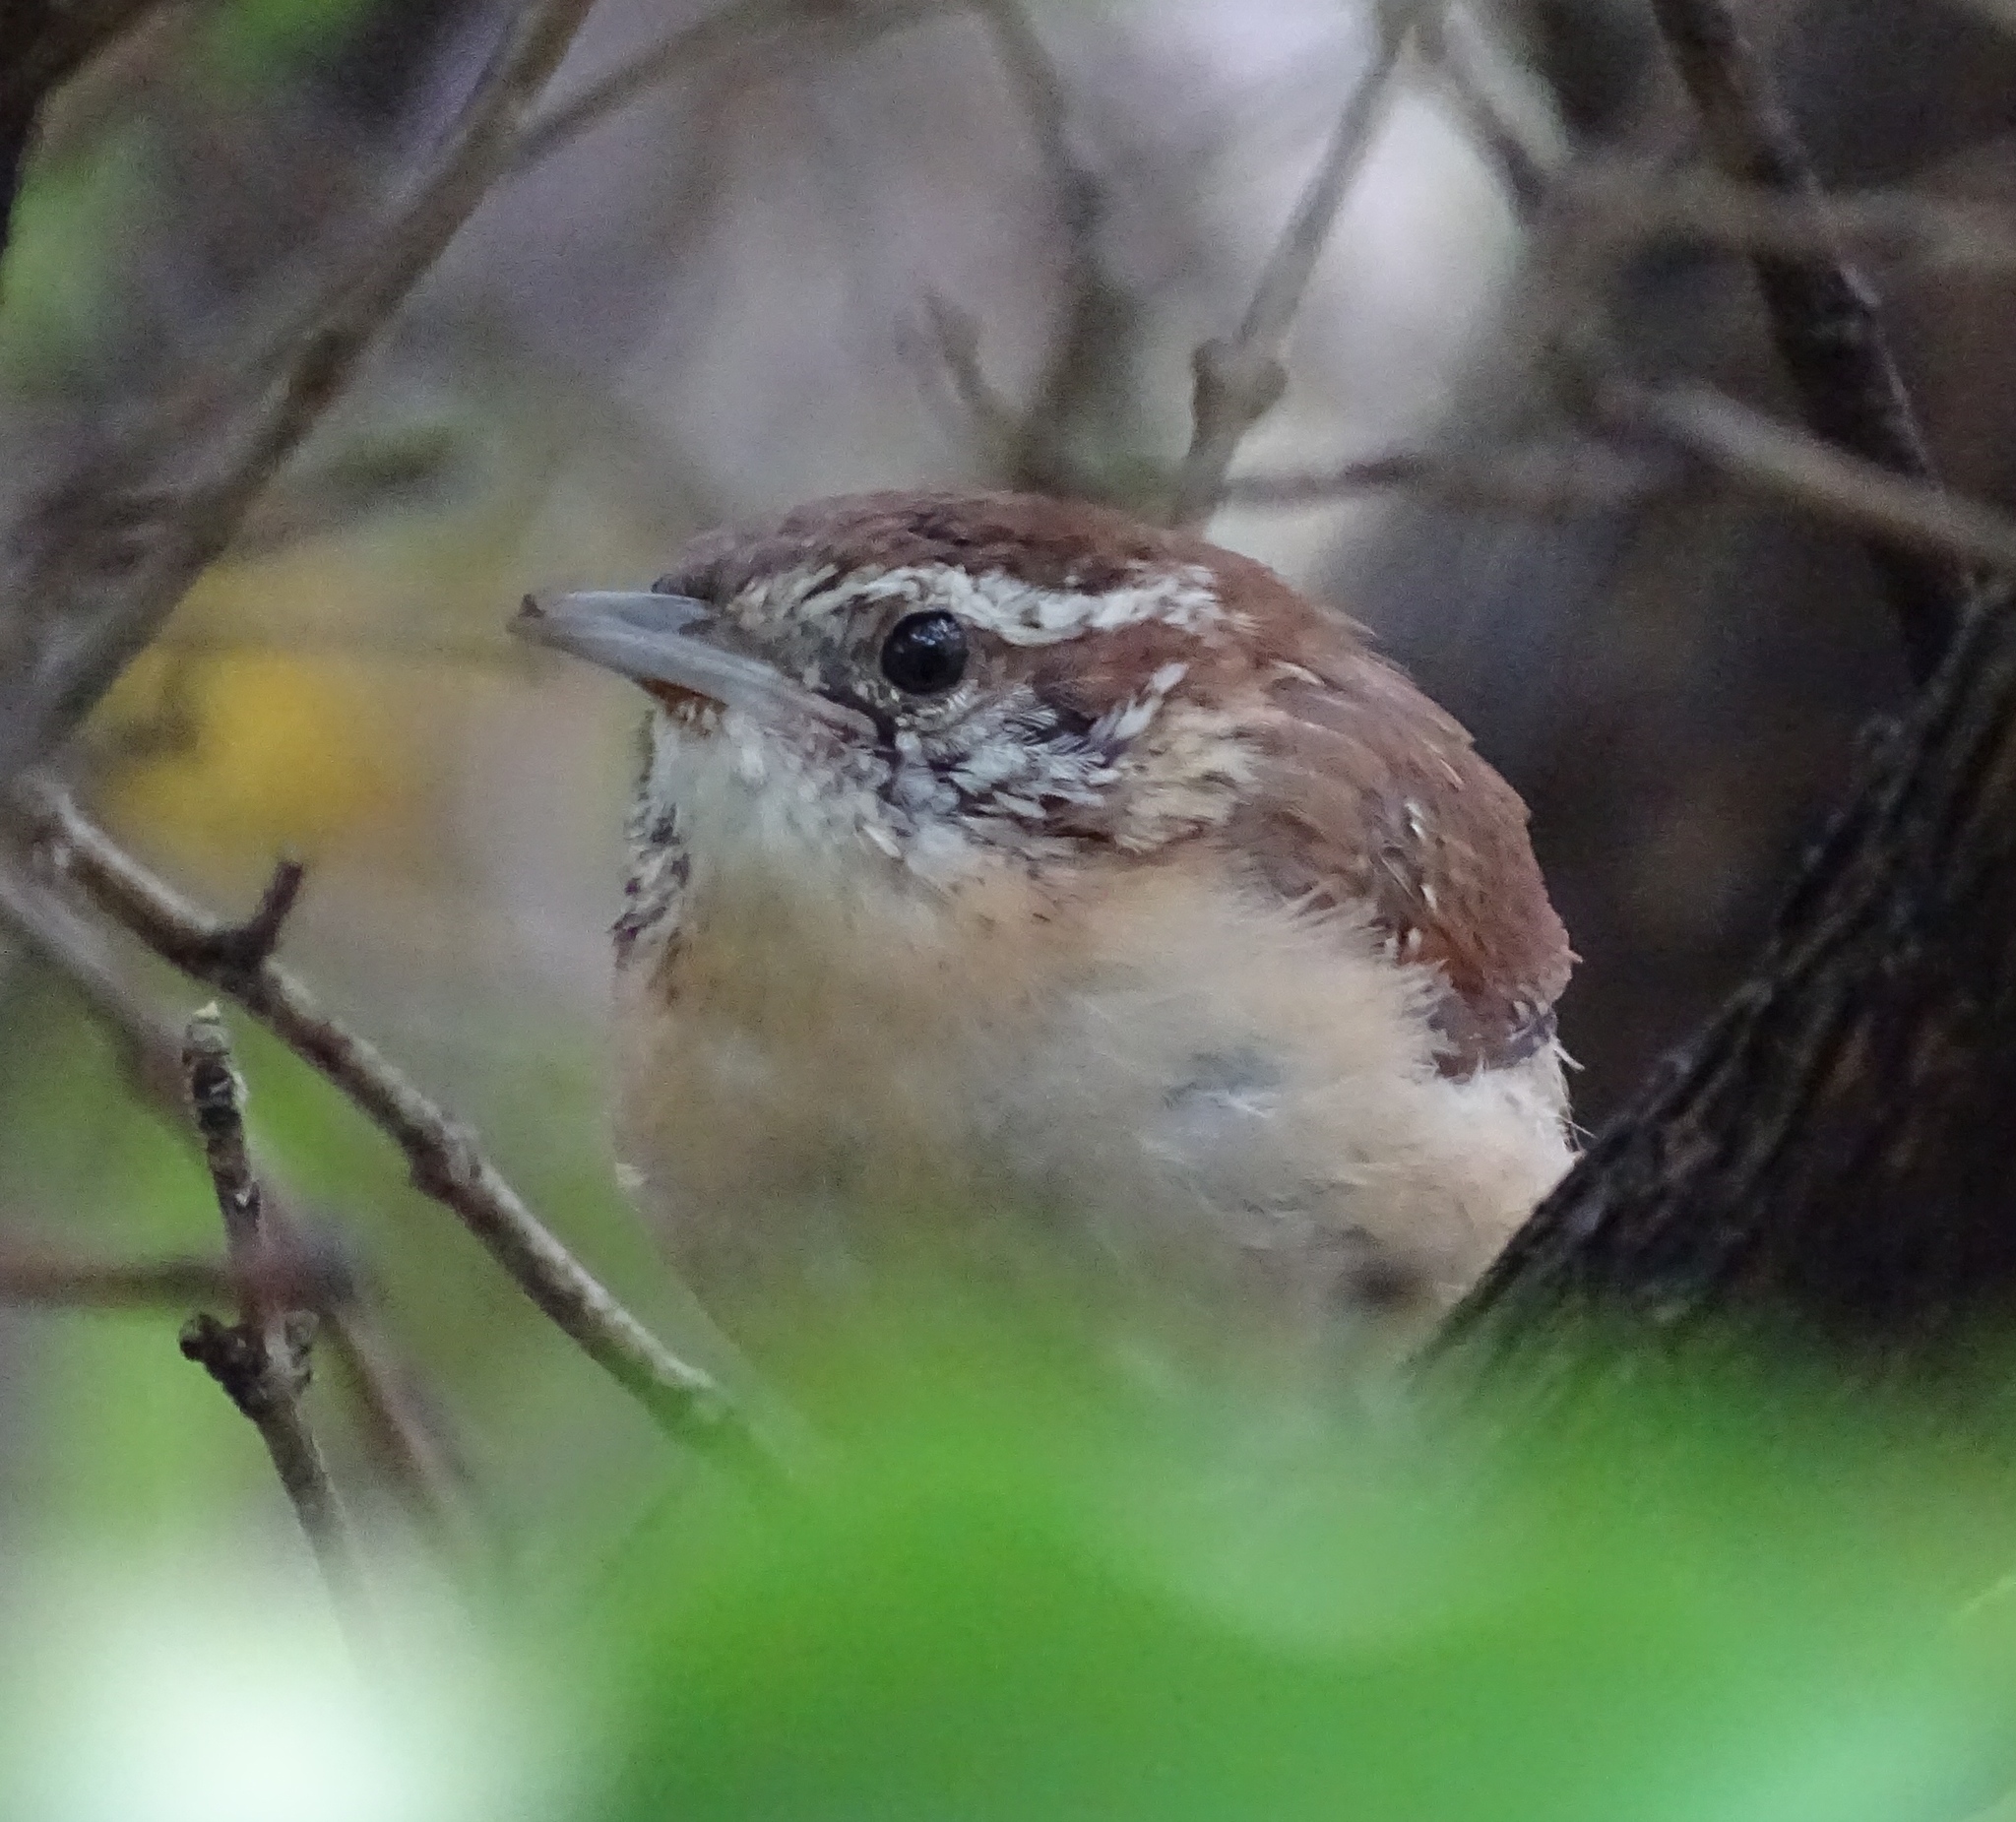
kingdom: Animalia
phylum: Chordata
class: Aves
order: Passeriformes
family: Troglodytidae
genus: Thryothorus
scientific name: Thryothorus ludovicianus
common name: Carolina wren
